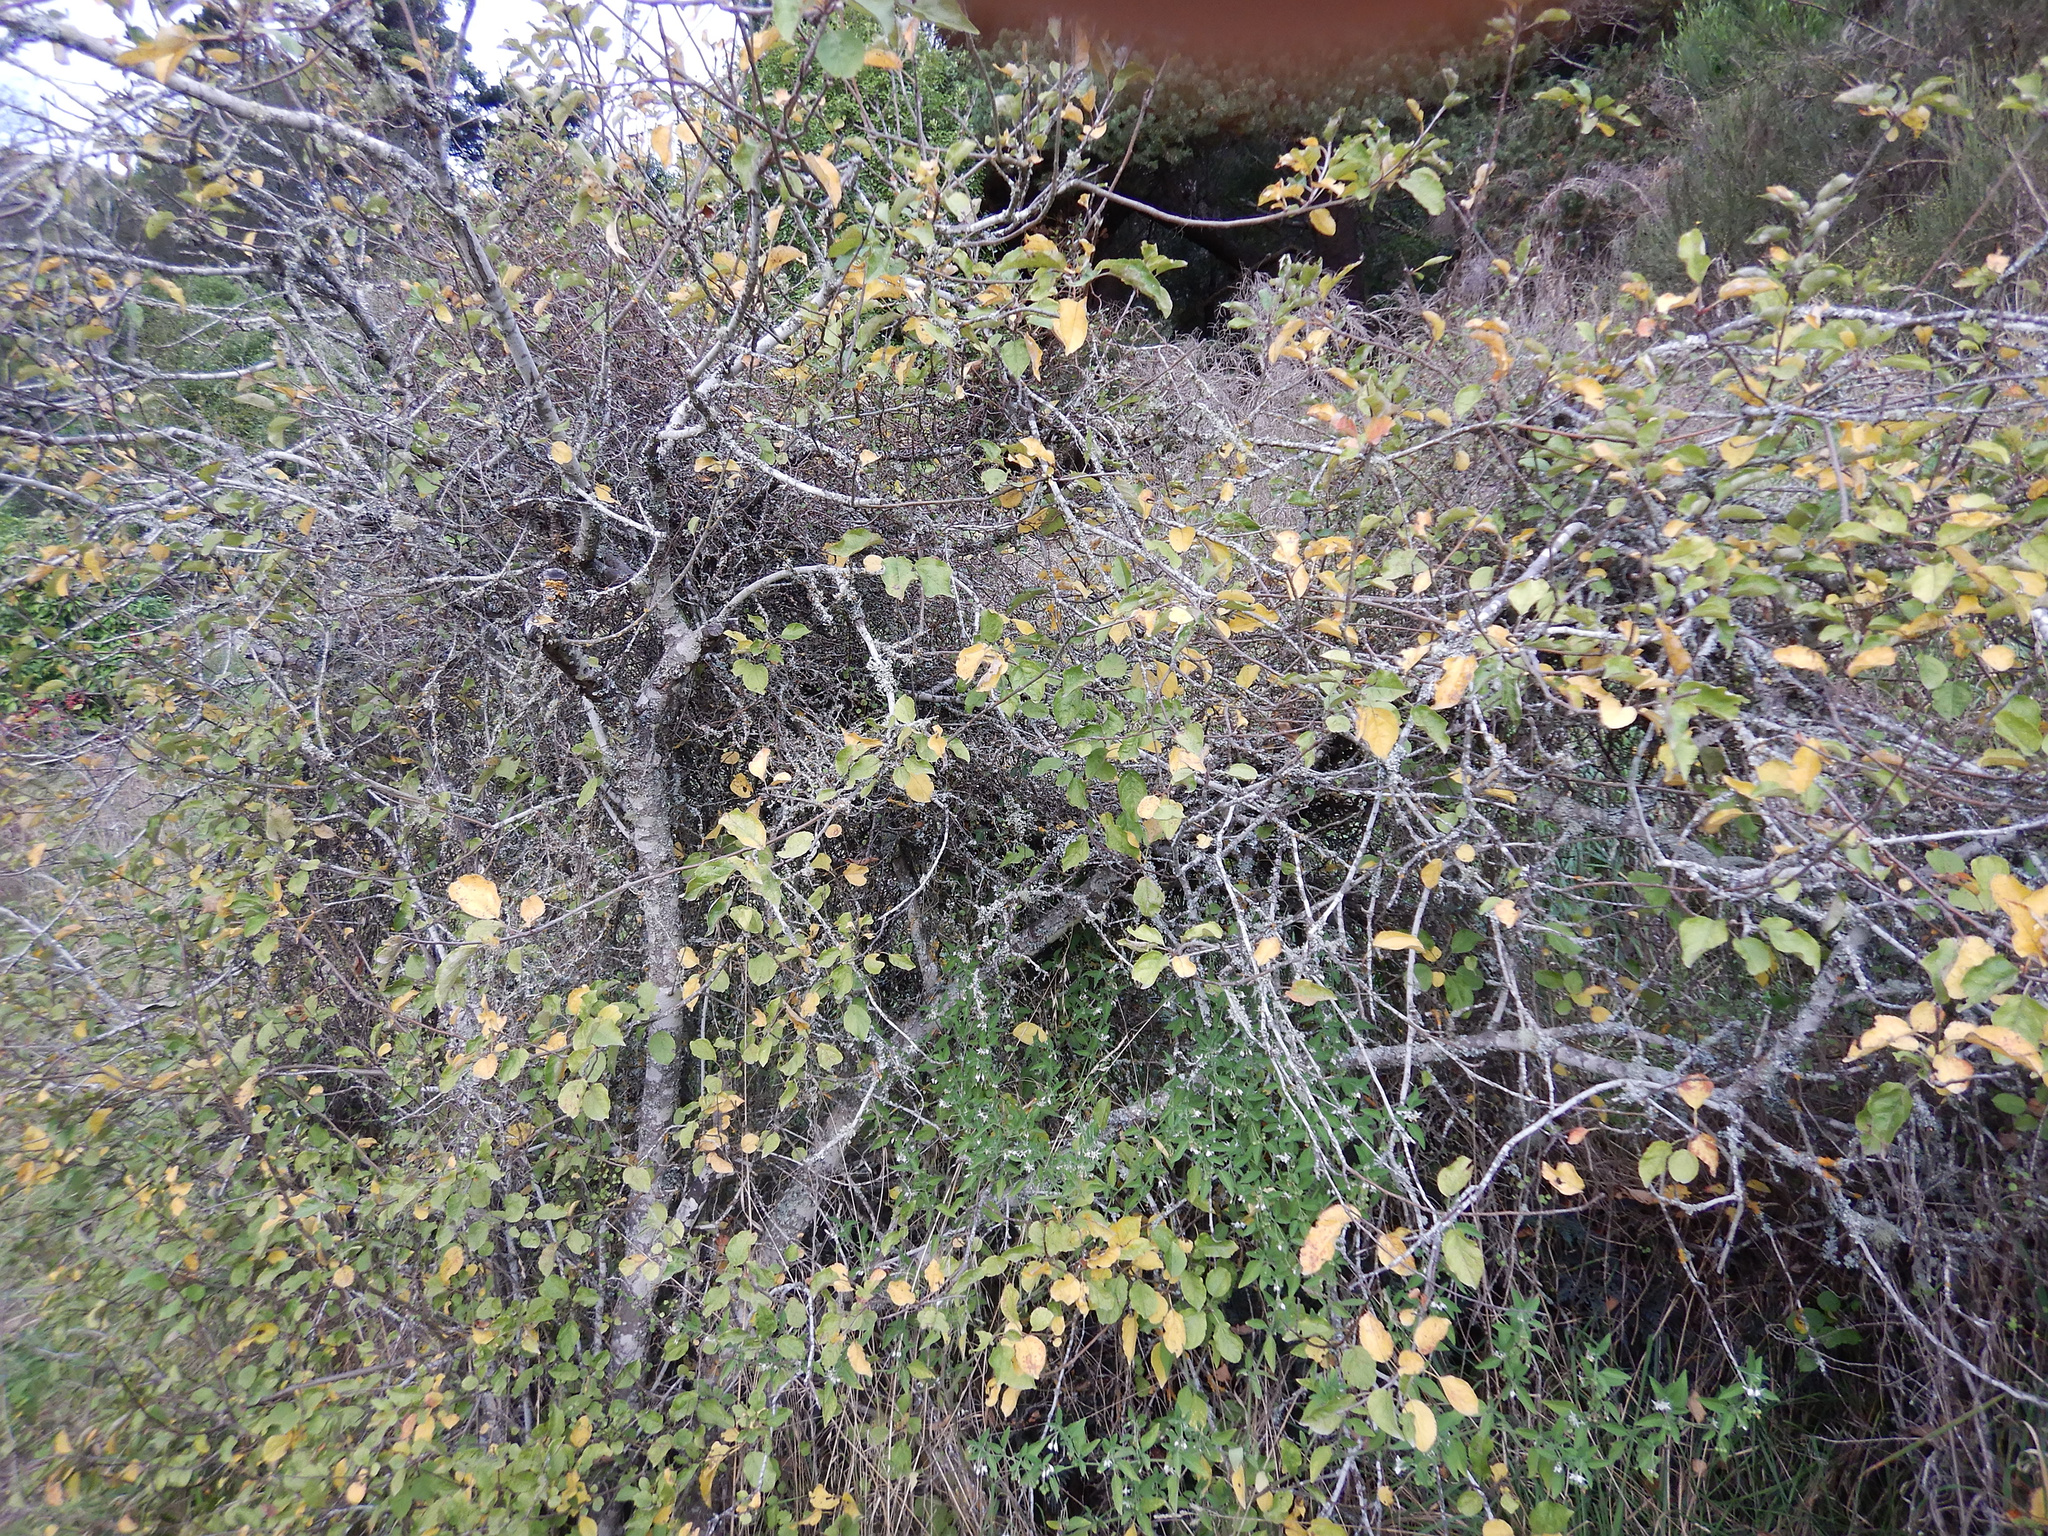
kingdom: Plantae
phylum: Tracheophyta
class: Magnoliopsida
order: Rosales
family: Rosaceae
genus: Malus
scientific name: Malus domestica
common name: Apple
